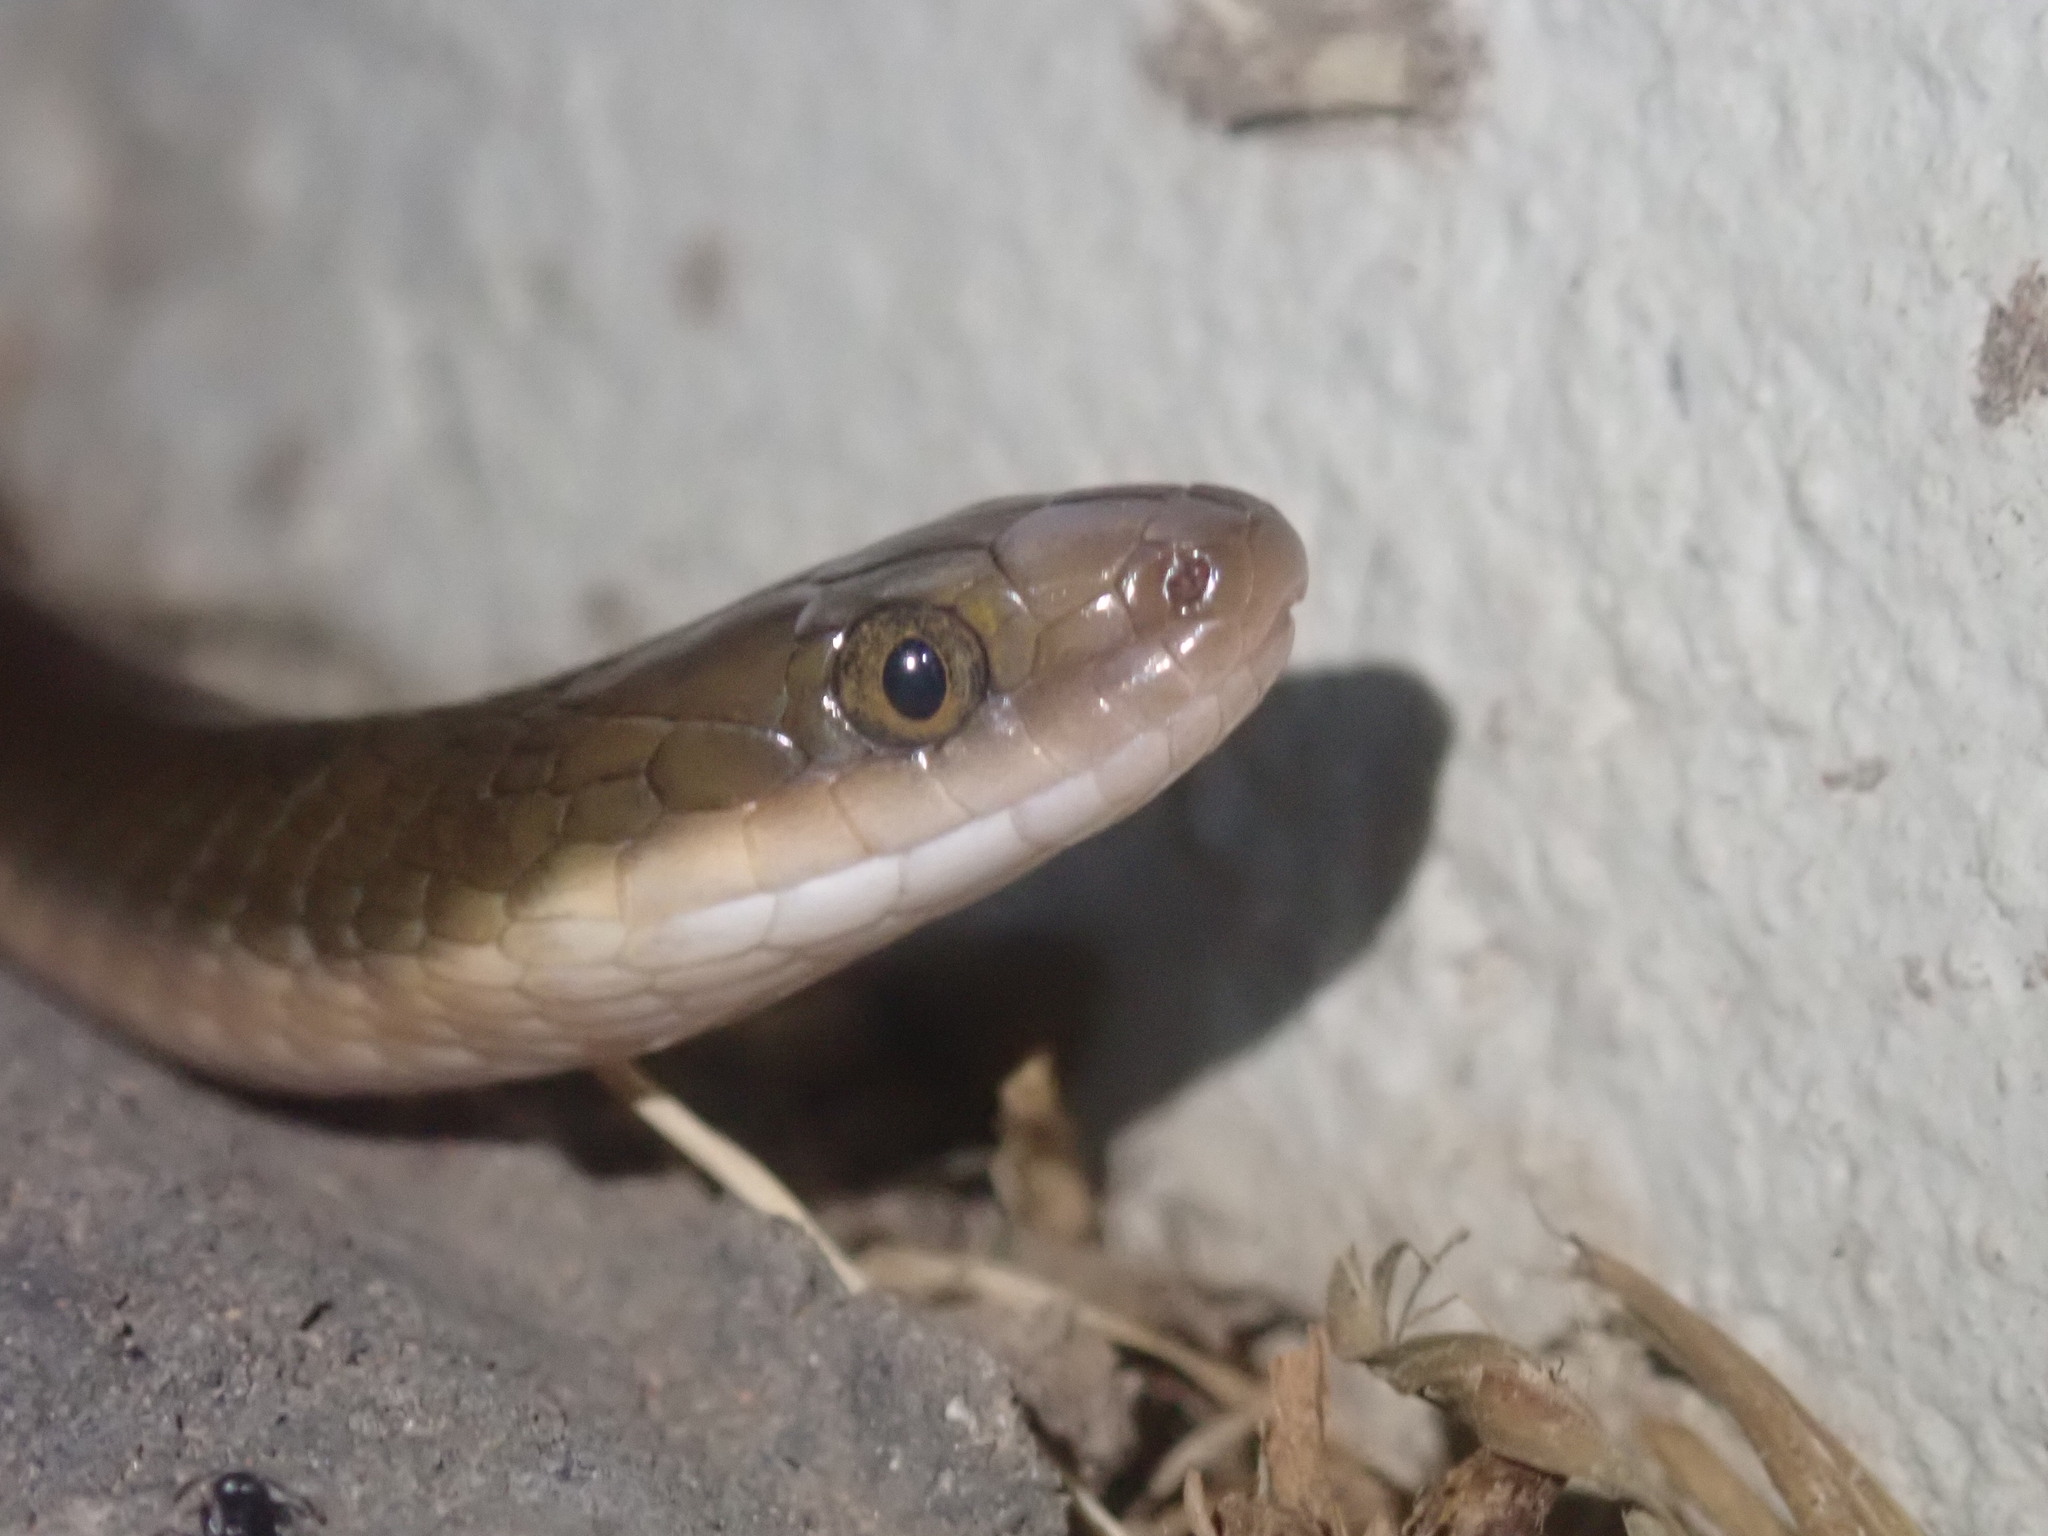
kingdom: Animalia
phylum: Chordata
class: Squamata
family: Lamprophiidae
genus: Lycodonomorphus
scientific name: Lycodonomorphus rufulus
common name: Brown water snake
